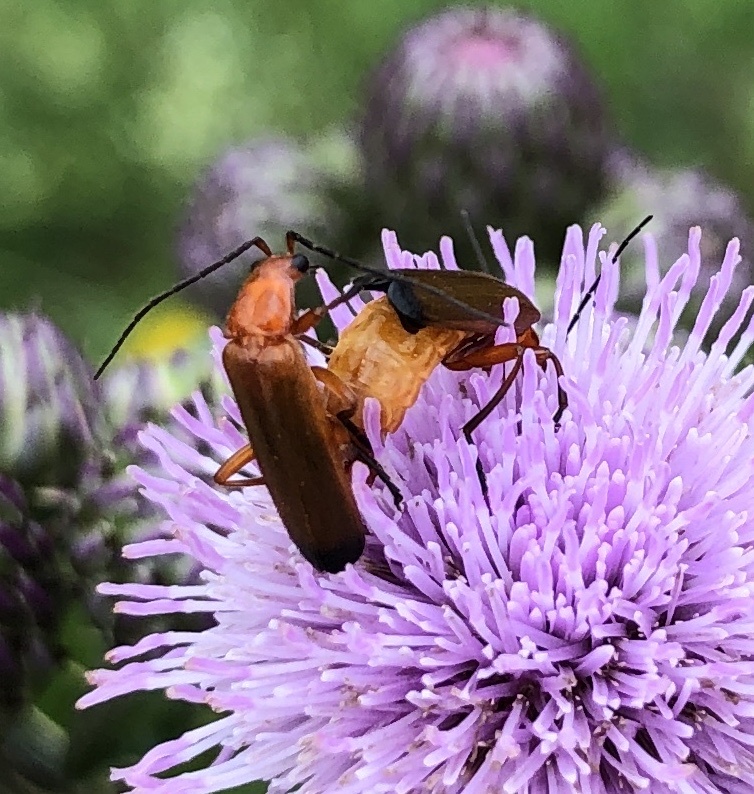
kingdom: Animalia
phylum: Arthropoda
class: Insecta
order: Coleoptera
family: Cantharidae
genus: Rhagonycha
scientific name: Rhagonycha fulva
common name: Common red soldier beetle
